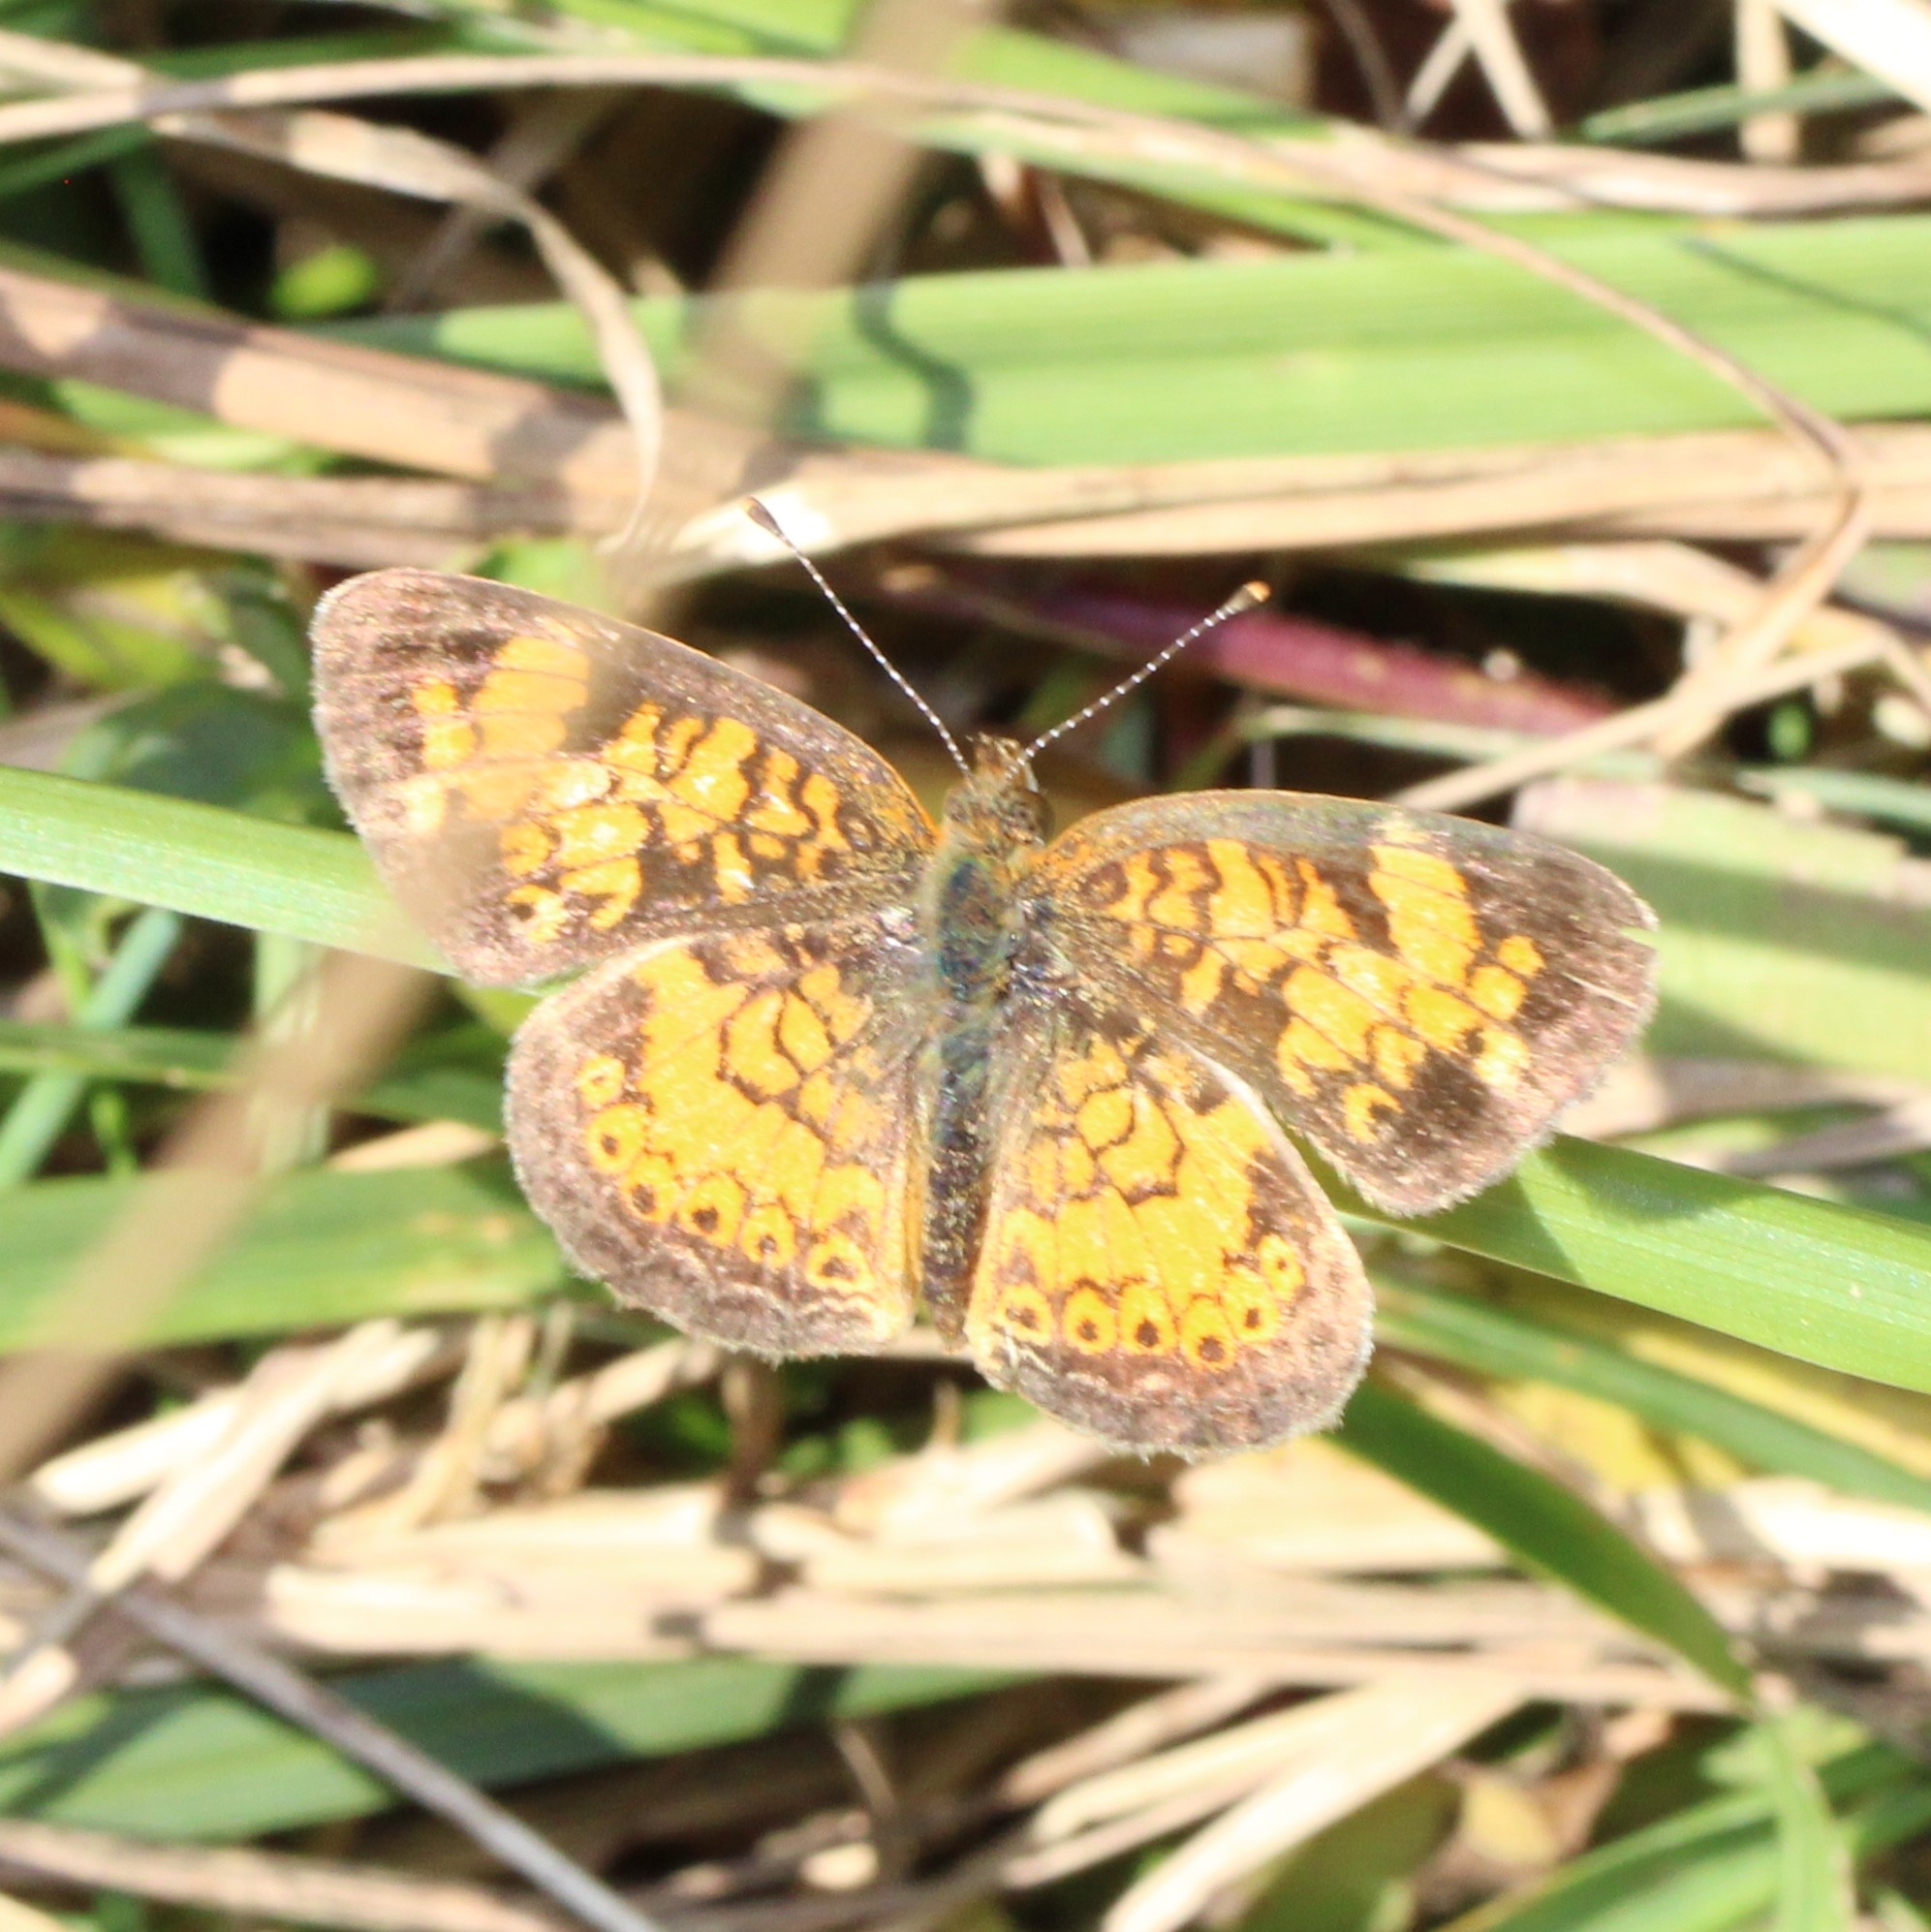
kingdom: Animalia
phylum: Arthropoda
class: Insecta
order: Lepidoptera
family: Nymphalidae
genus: Phyciodes
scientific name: Phyciodes tharos
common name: Pearl crescent
